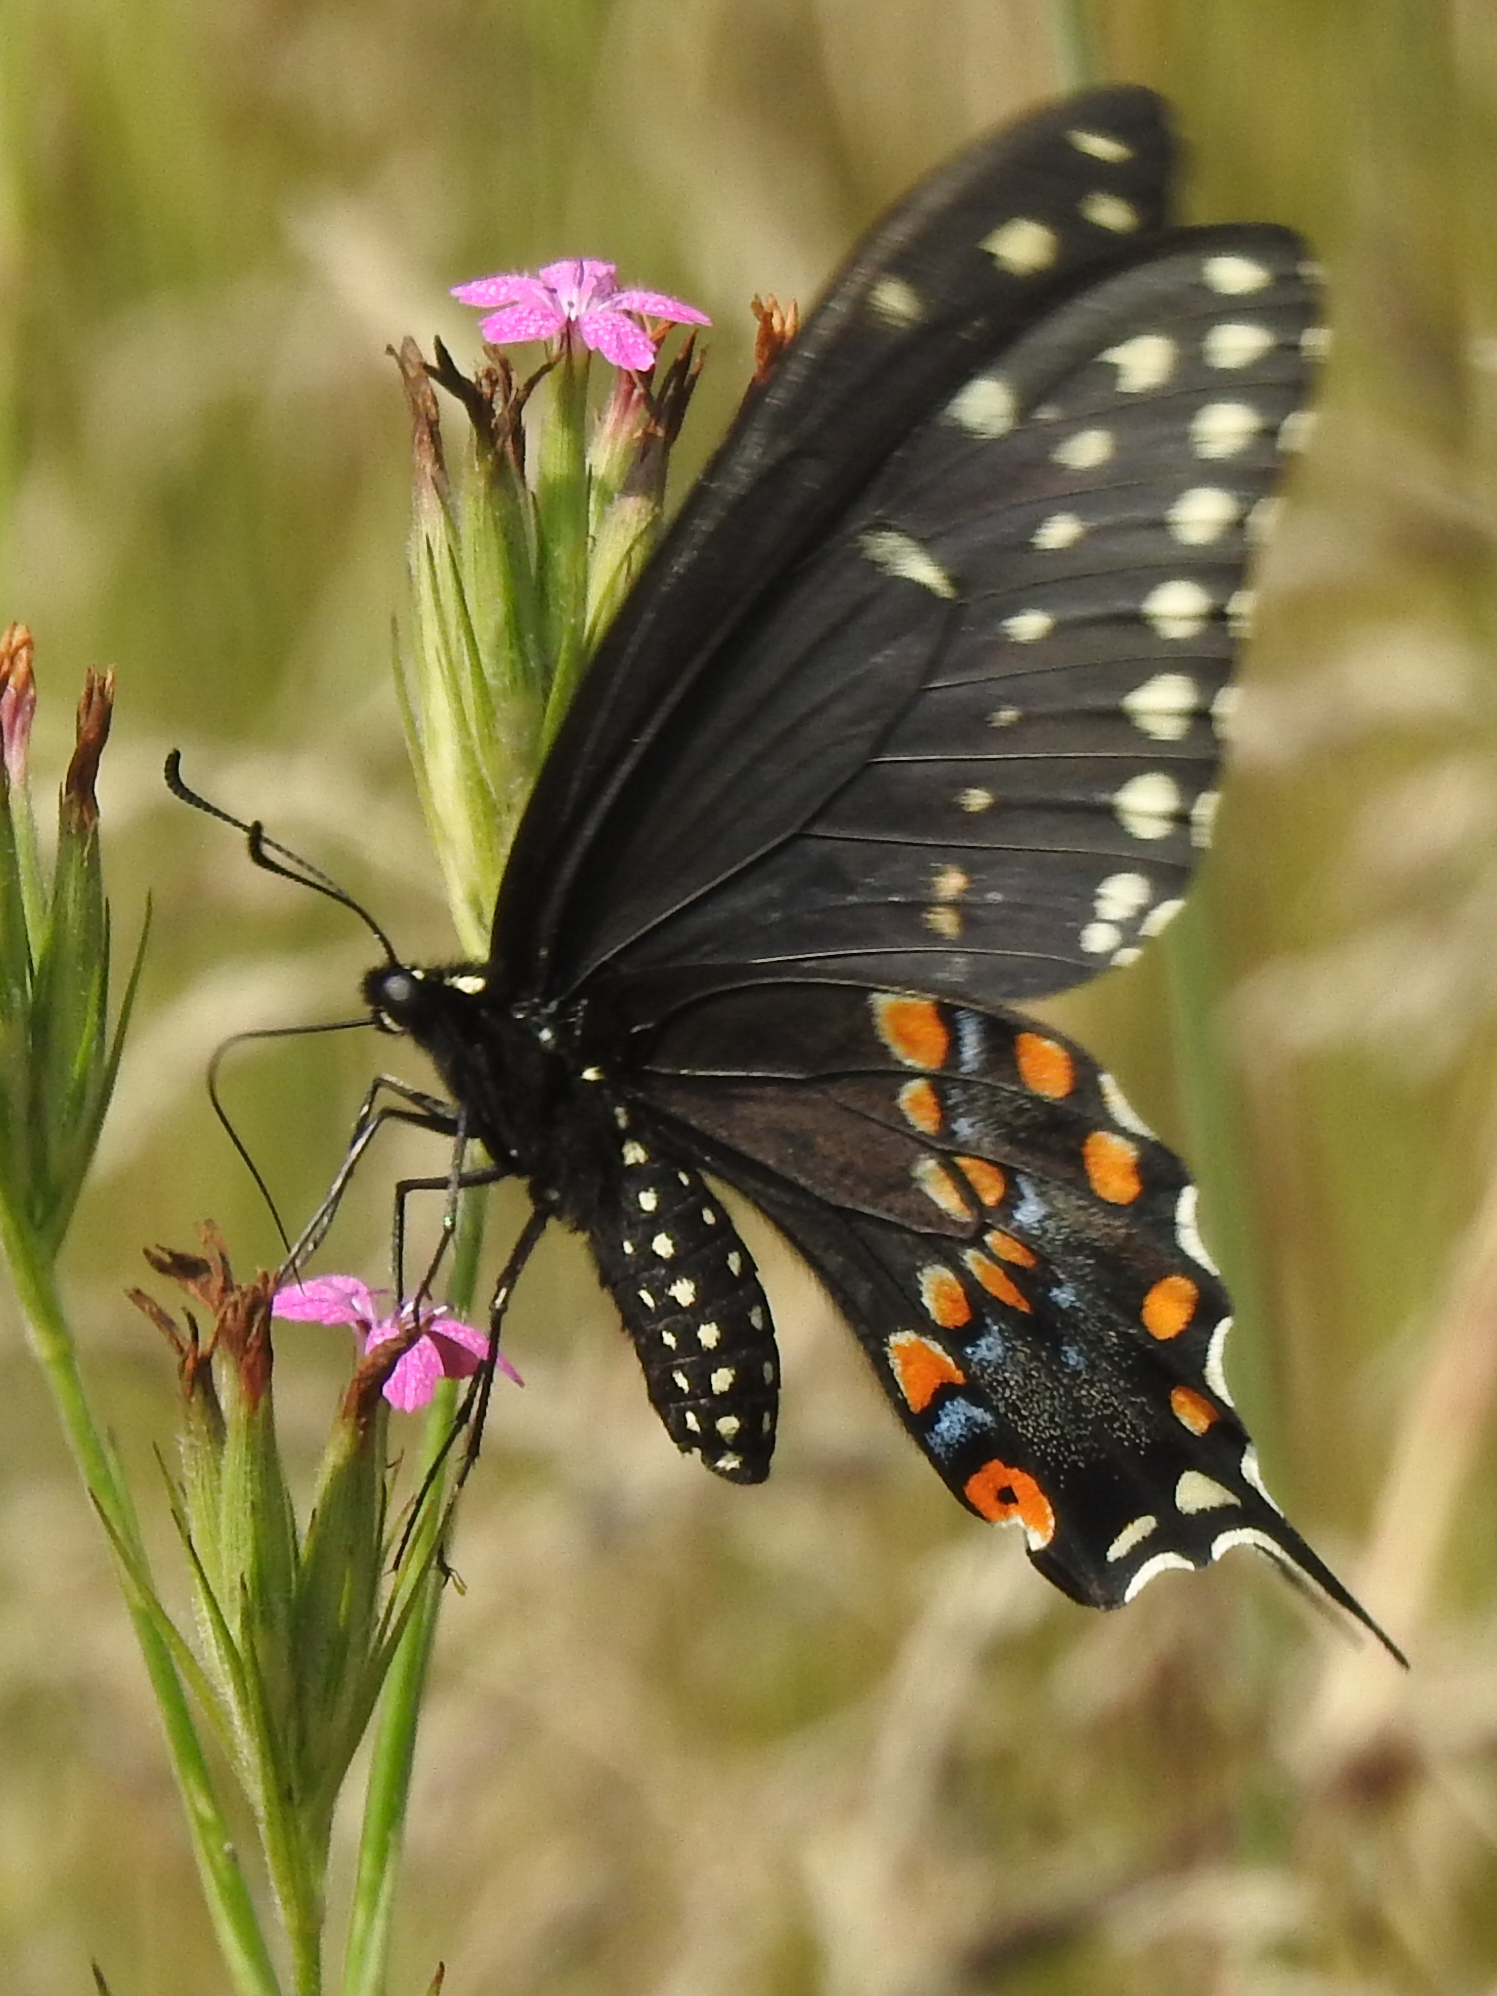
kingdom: Animalia
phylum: Arthropoda
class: Insecta
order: Lepidoptera
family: Papilionidae
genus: Papilio
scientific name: Papilio polyxenes
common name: Black swallowtail
